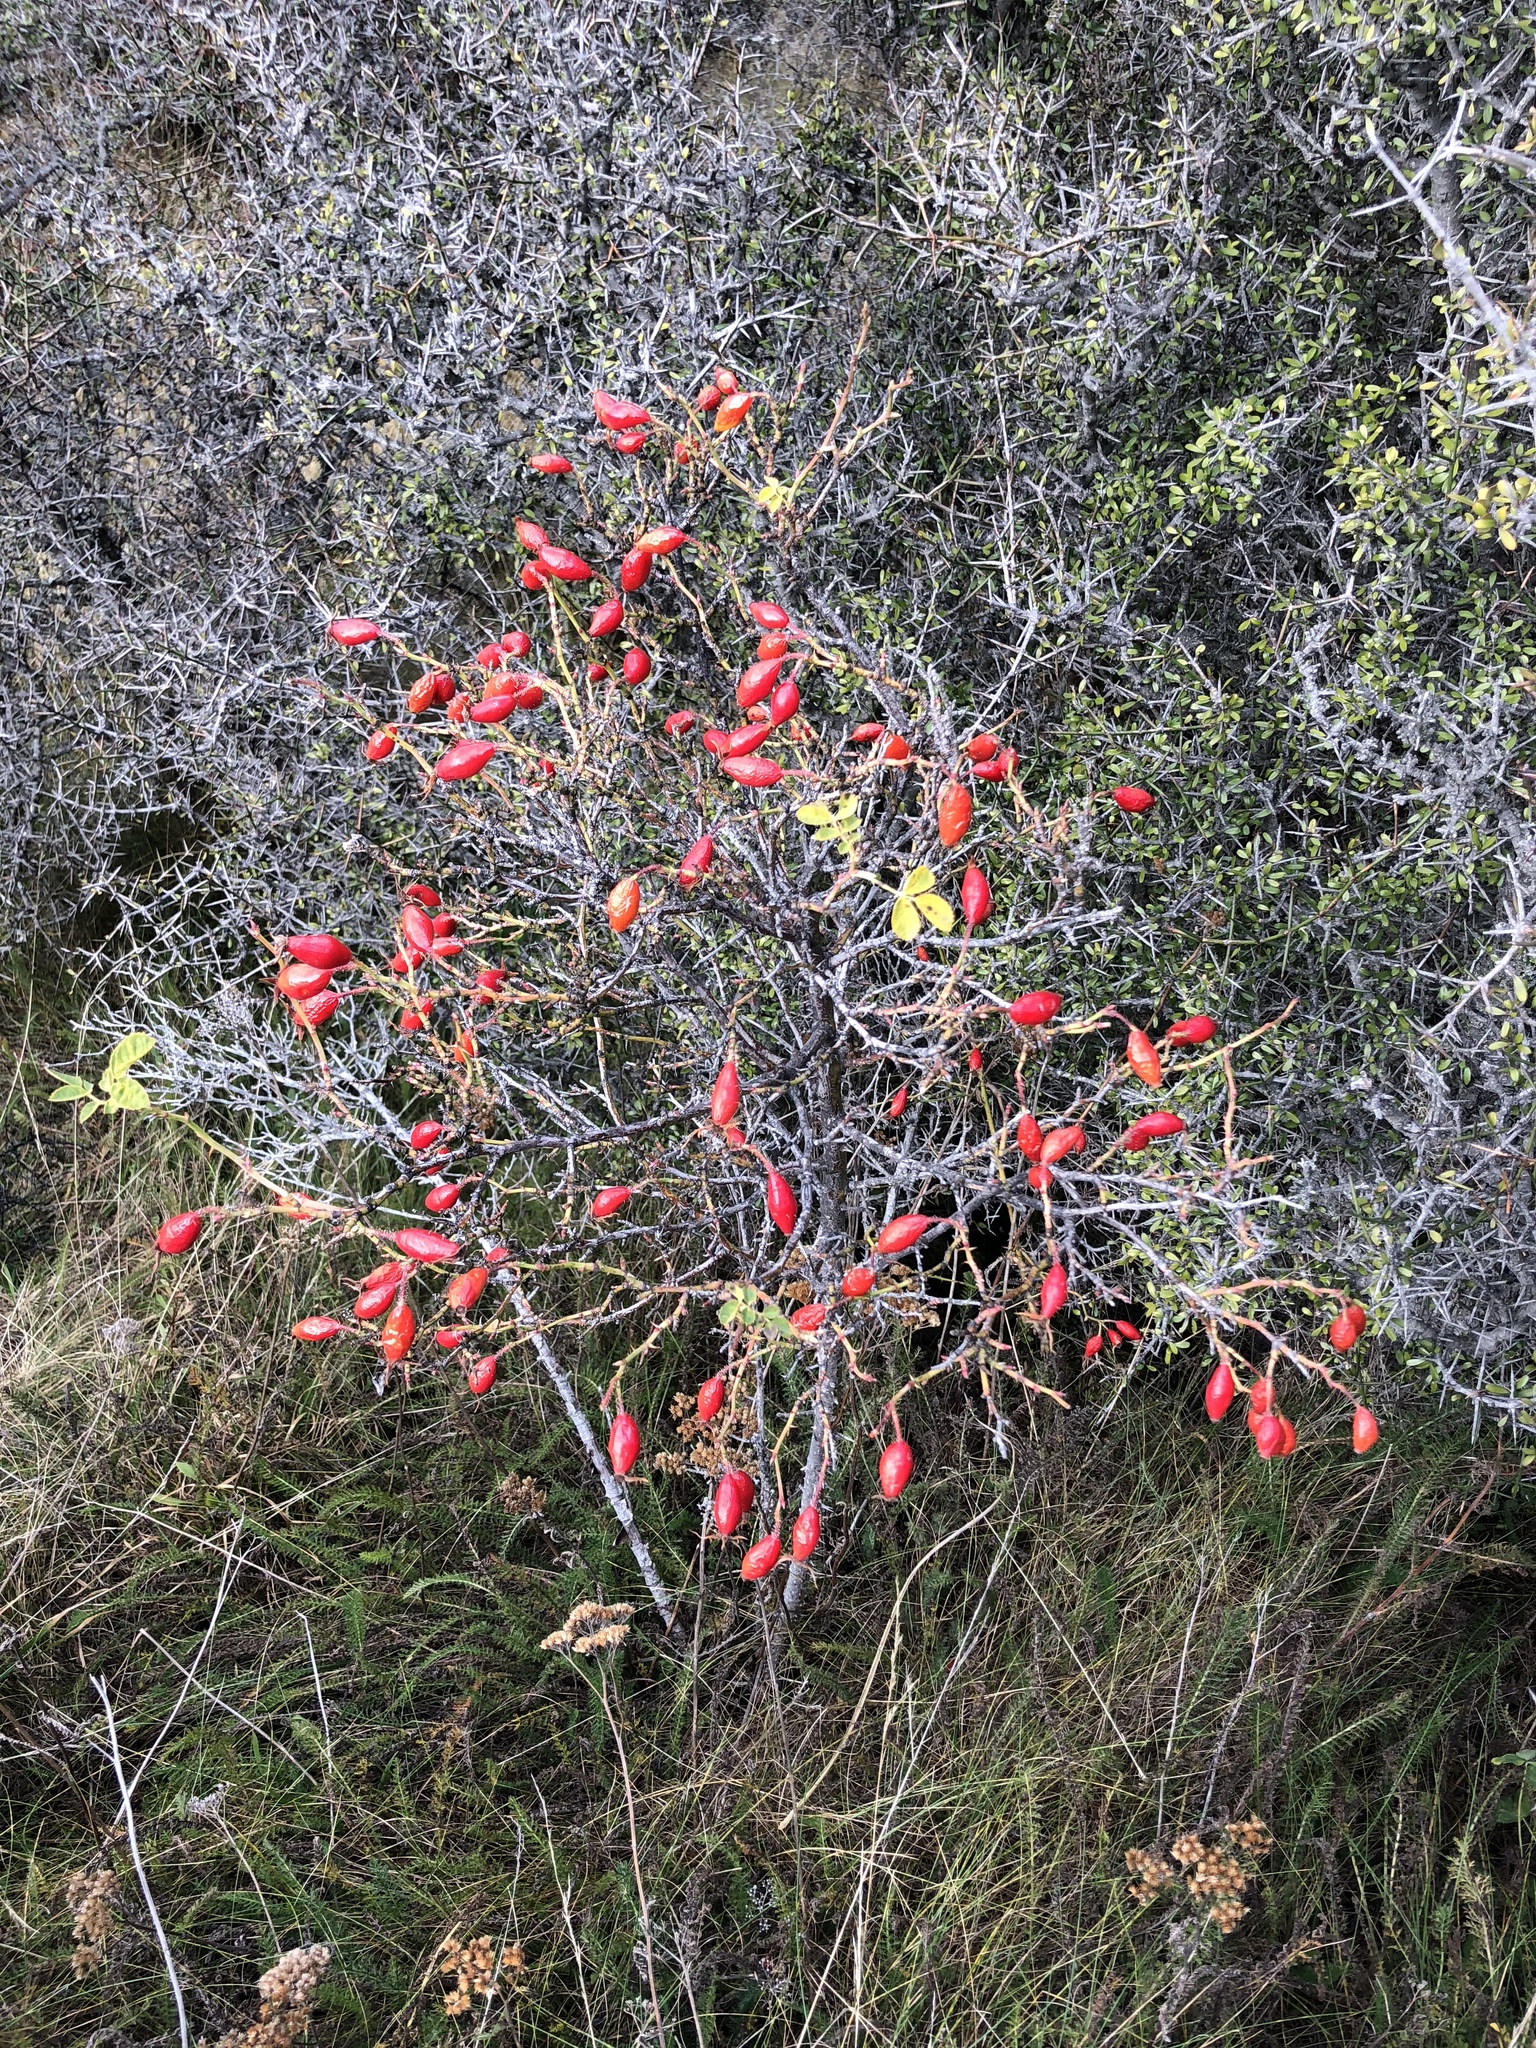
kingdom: Plantae
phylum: Tracheophyta
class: Magnoliopsida
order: Rosales
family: Rosaceae
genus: Rosa
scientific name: Rosa rubiginosa
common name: Sweet-briar
